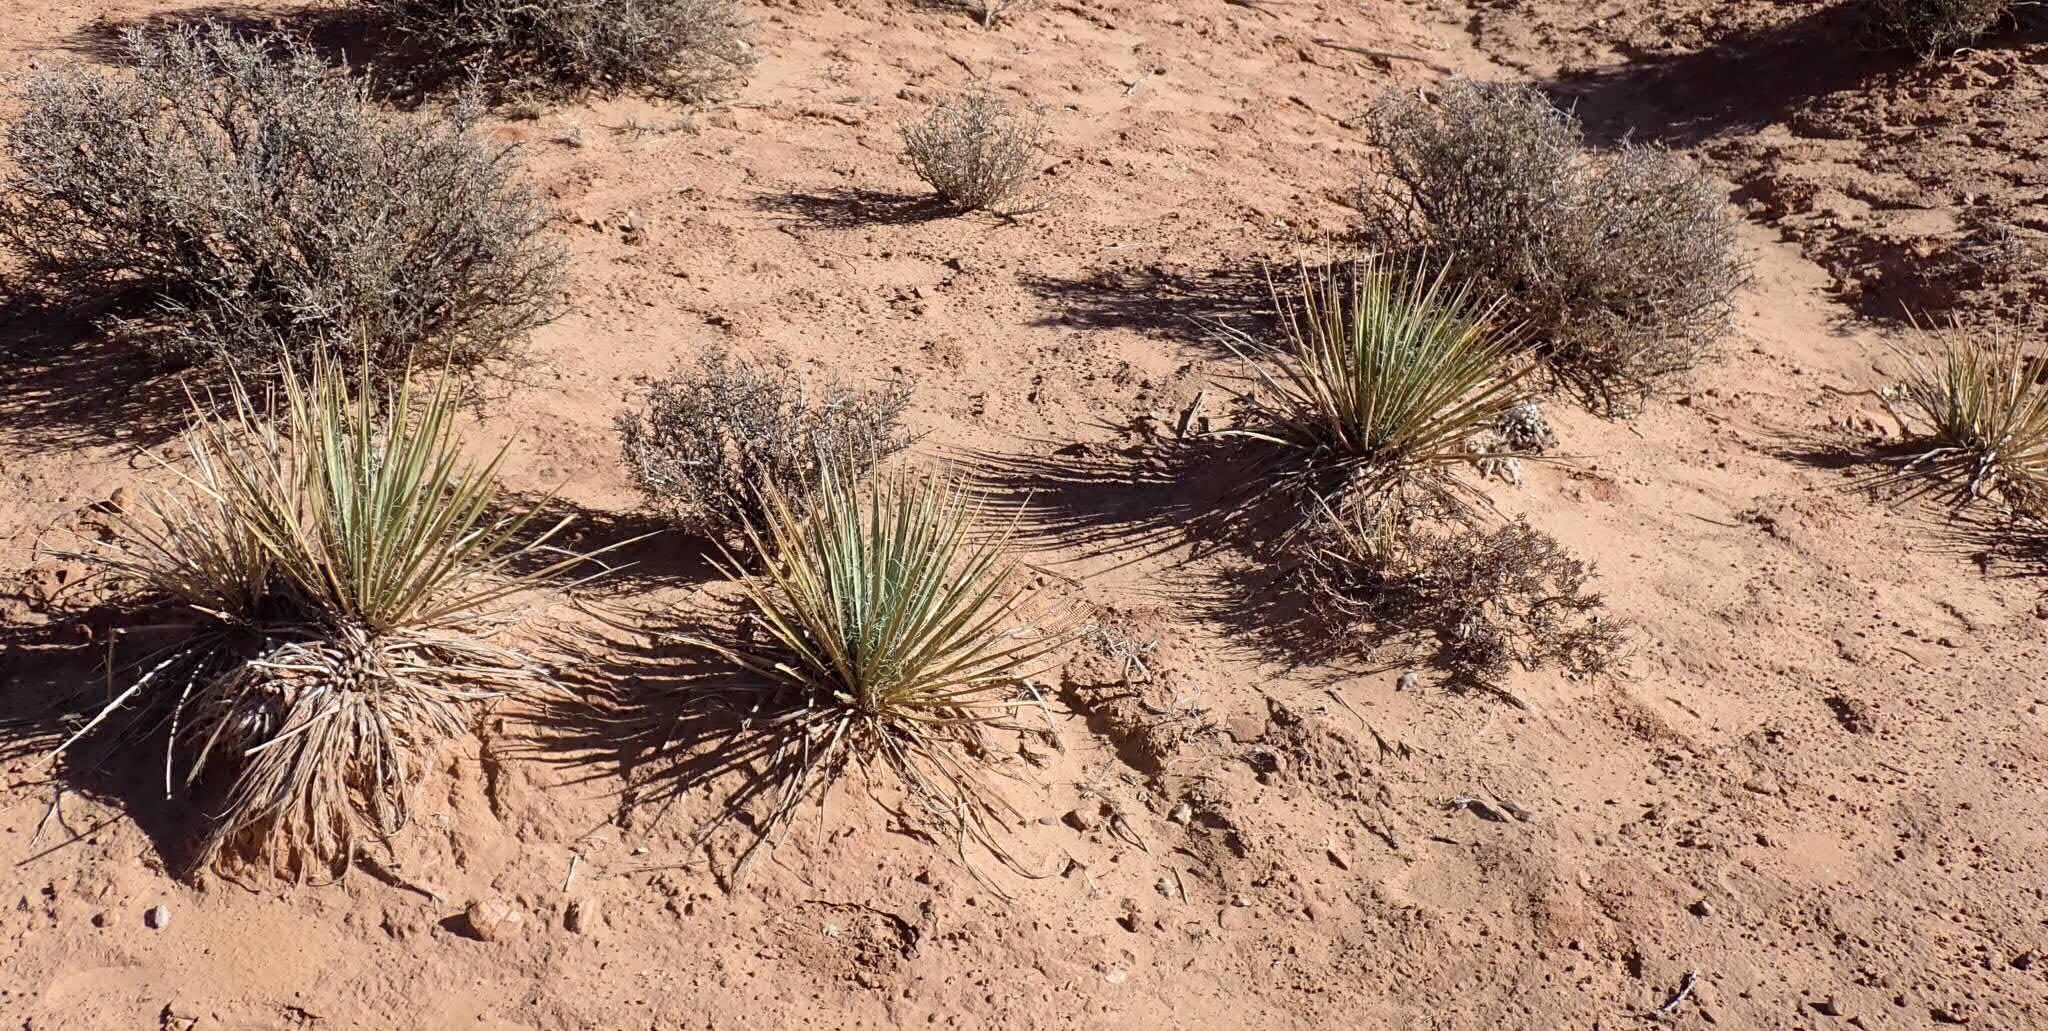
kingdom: Plantae
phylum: Tracheophyta
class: Liliopsida
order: Asparagales
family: Asparagaceae
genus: Yucca
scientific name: Yucca angustissima
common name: Narrowleaf yucca
